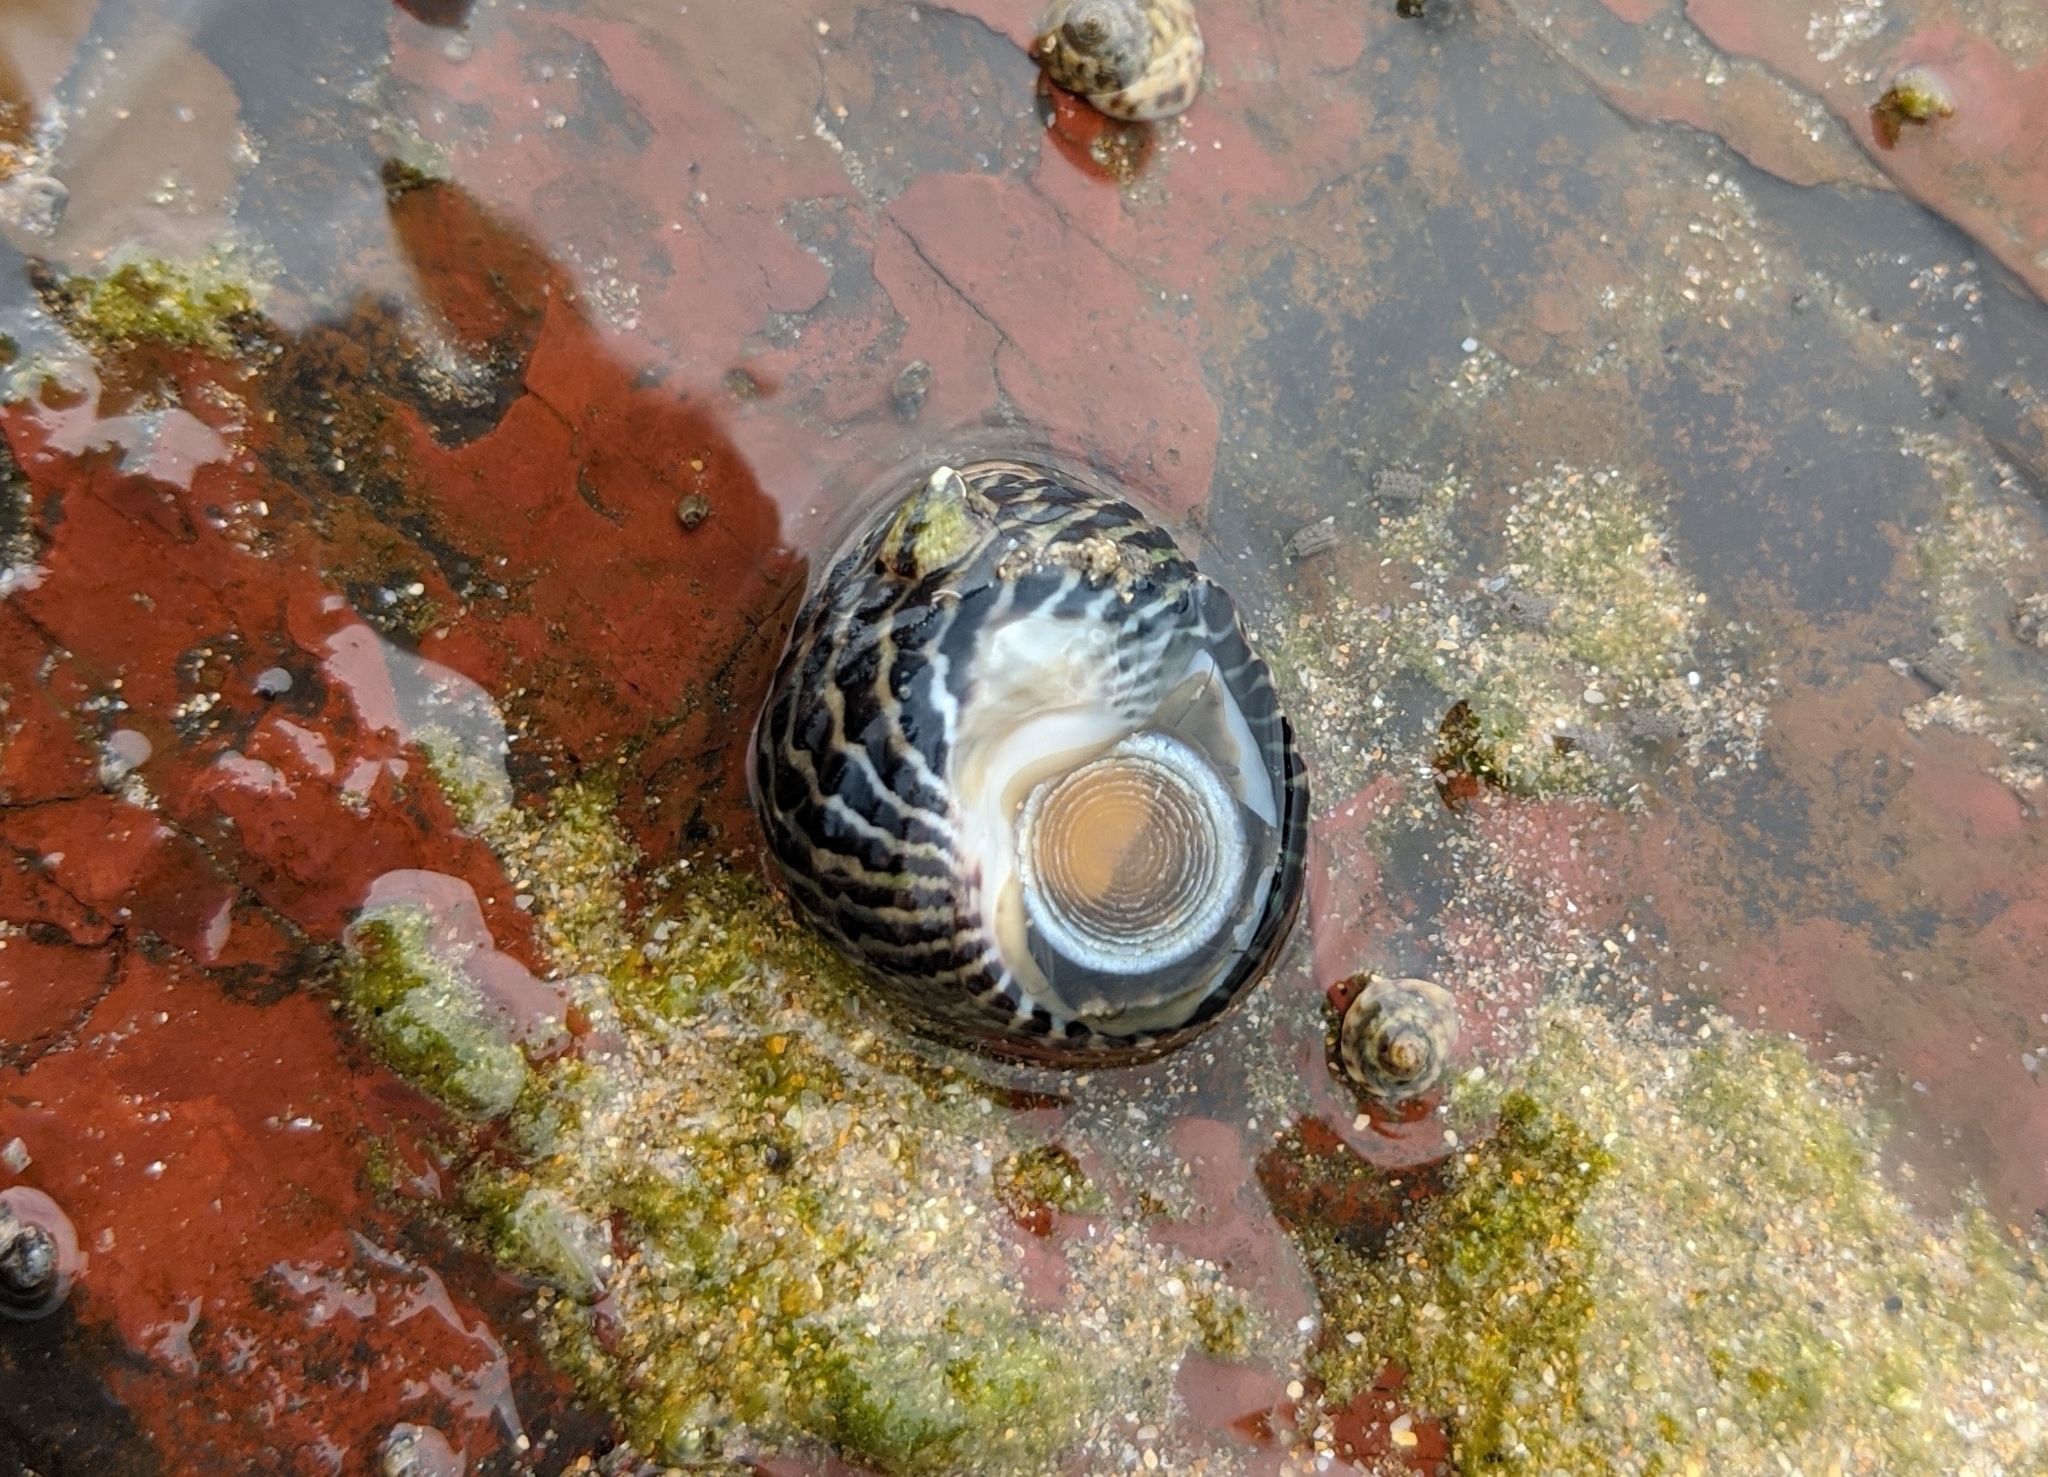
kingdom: Animalia
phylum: Mollusca
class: Gastropoda
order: Trochida
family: Trochidae
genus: Austrocochlea
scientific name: Austrocochlea porcata
